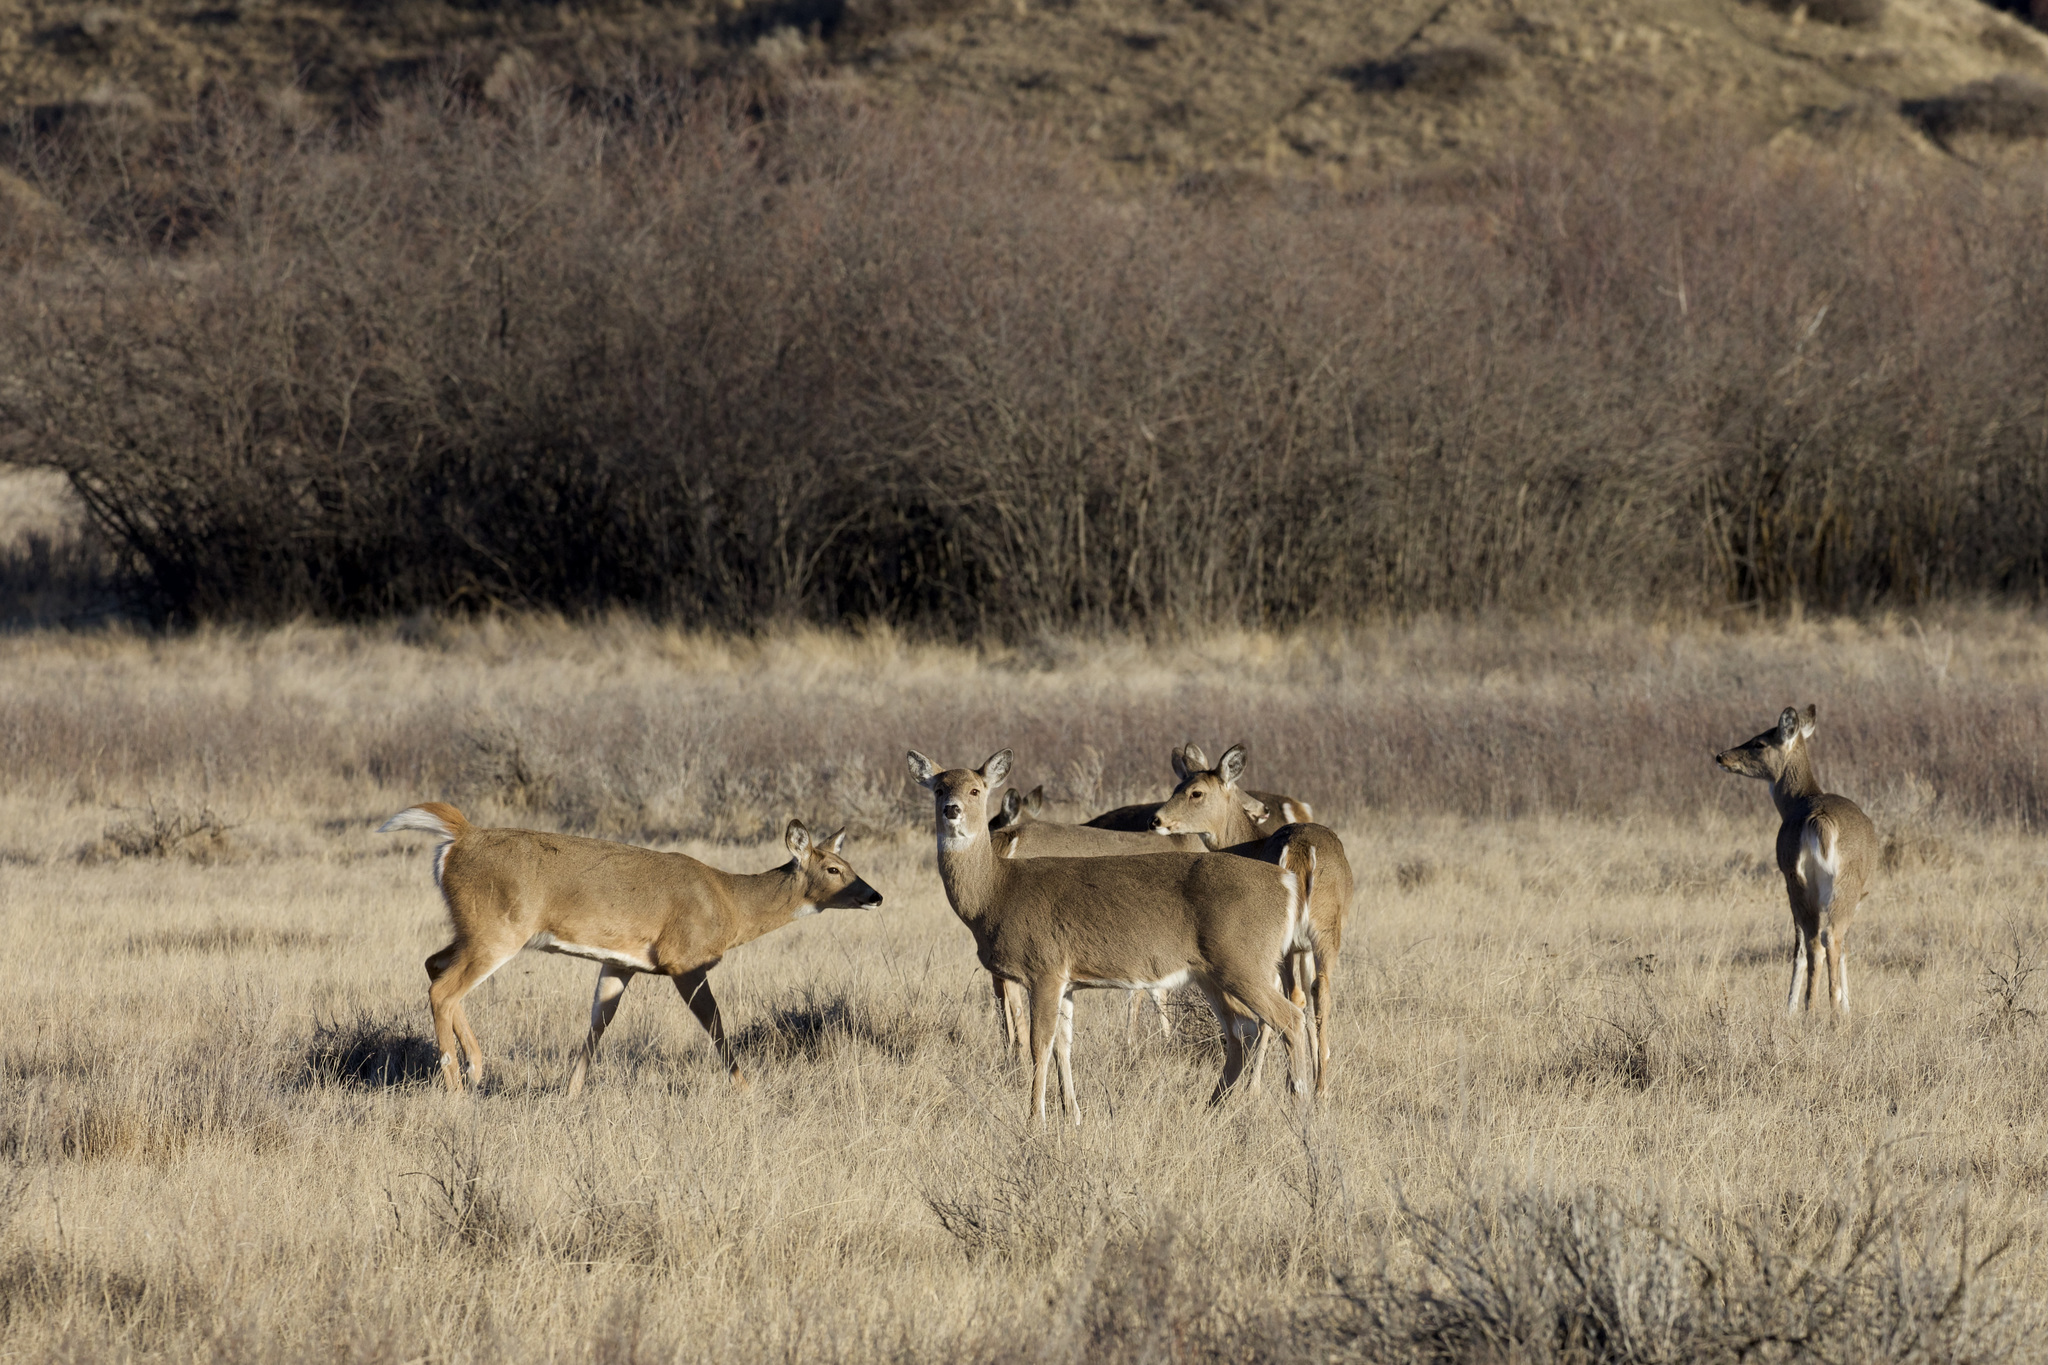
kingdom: Animalia
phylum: Chordata
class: Mammalia
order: Artiodactyla
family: Cervidae
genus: Odocoileus
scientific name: Odocoileus virginianus
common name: White-tailed deer
